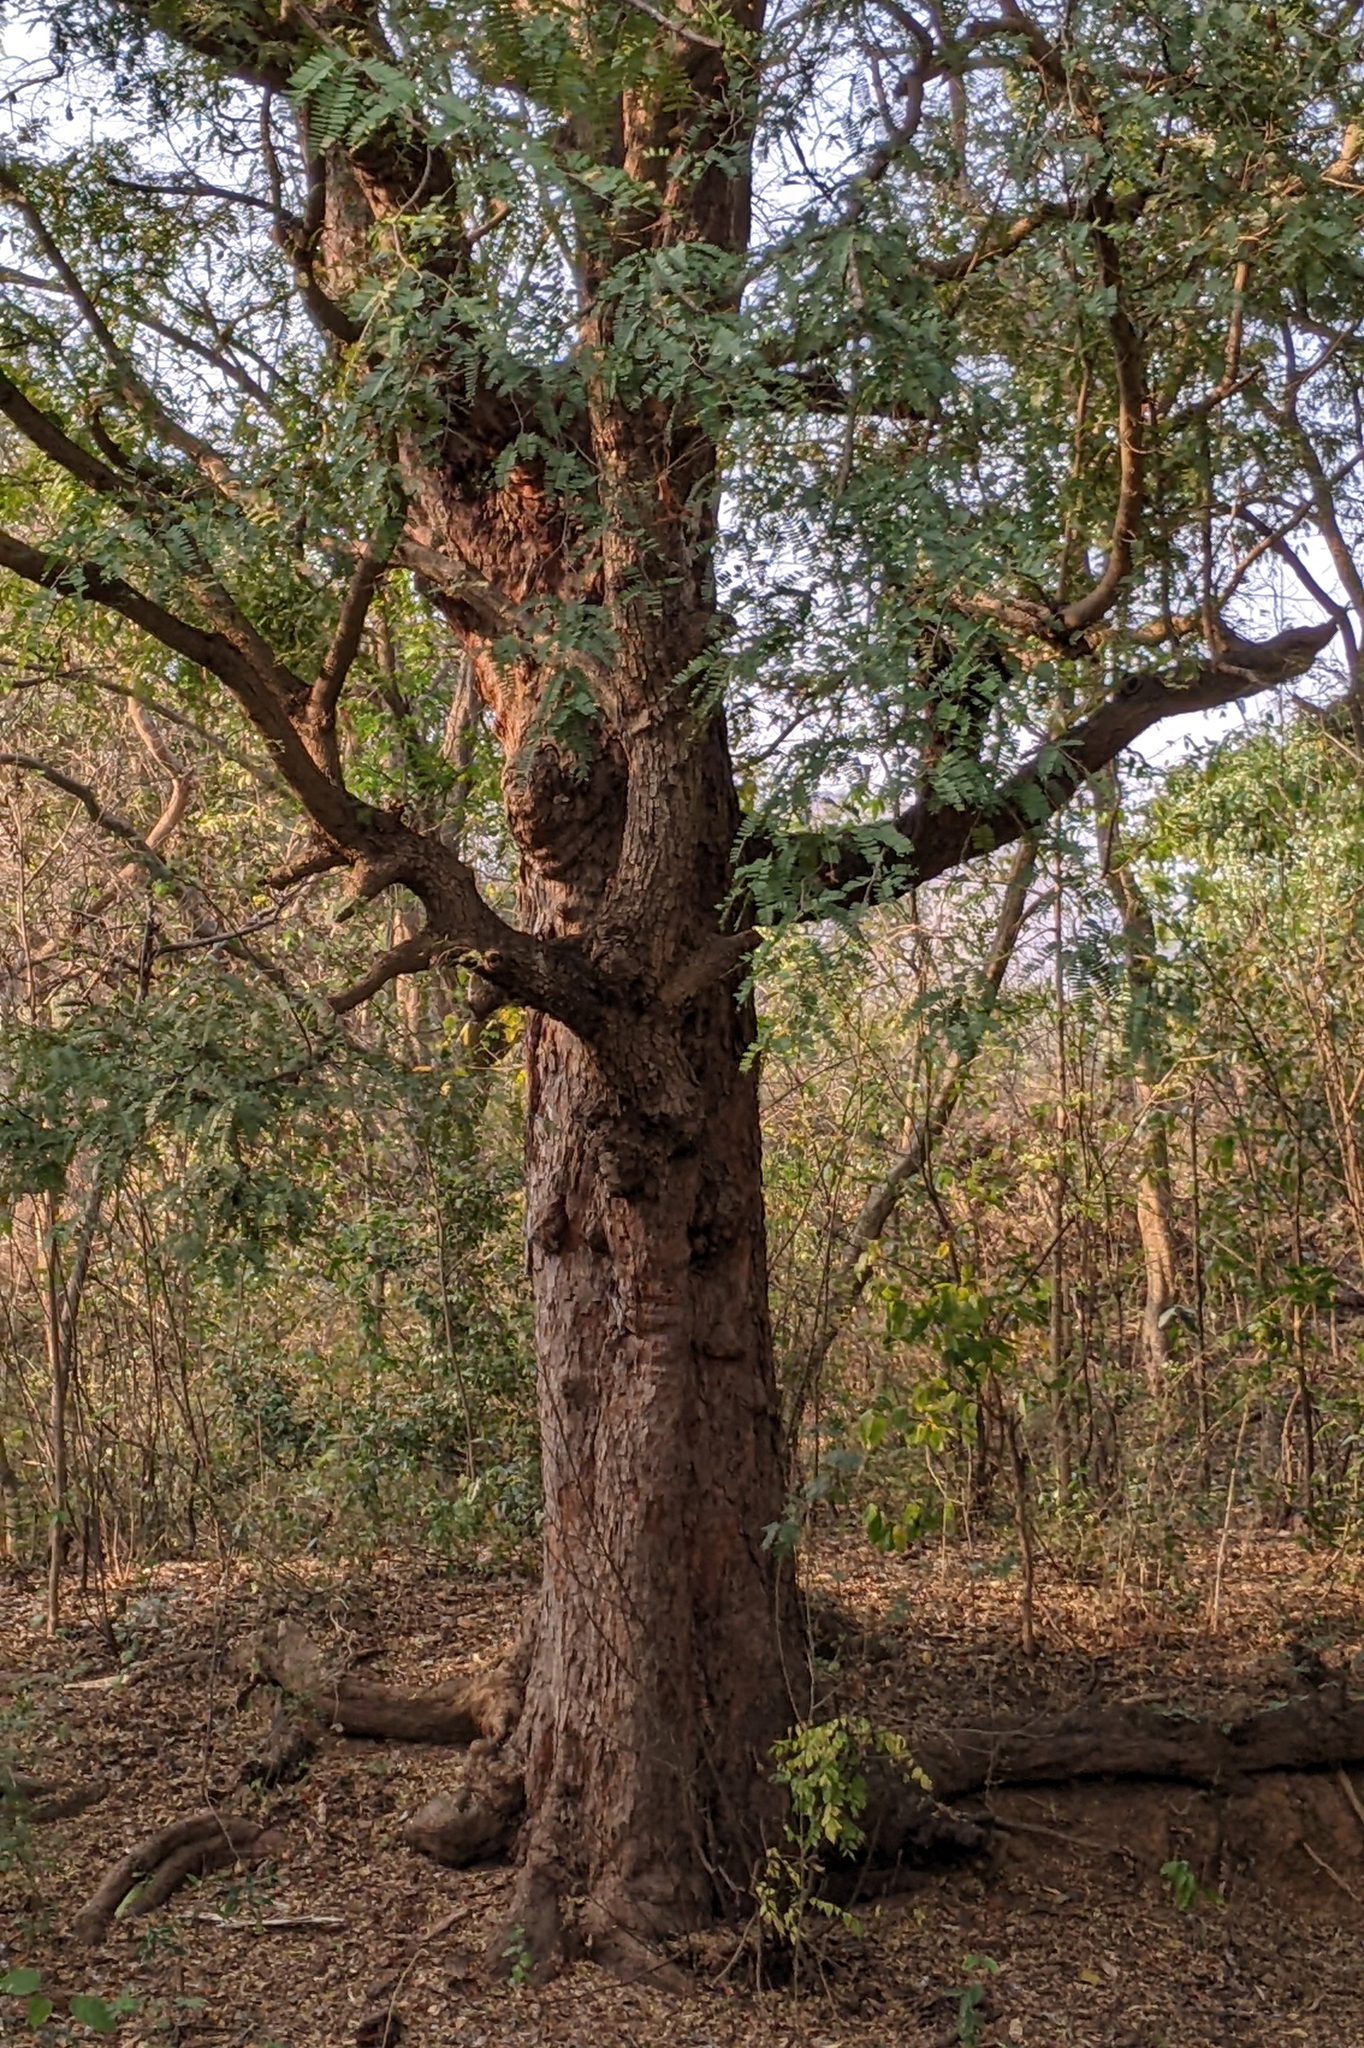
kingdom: Plantae
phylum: Tracheophyta
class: Magnoliopsida
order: Fabales
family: Fabaceae
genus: Tamarindus
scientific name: Tamarindus indica
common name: Tamarind
